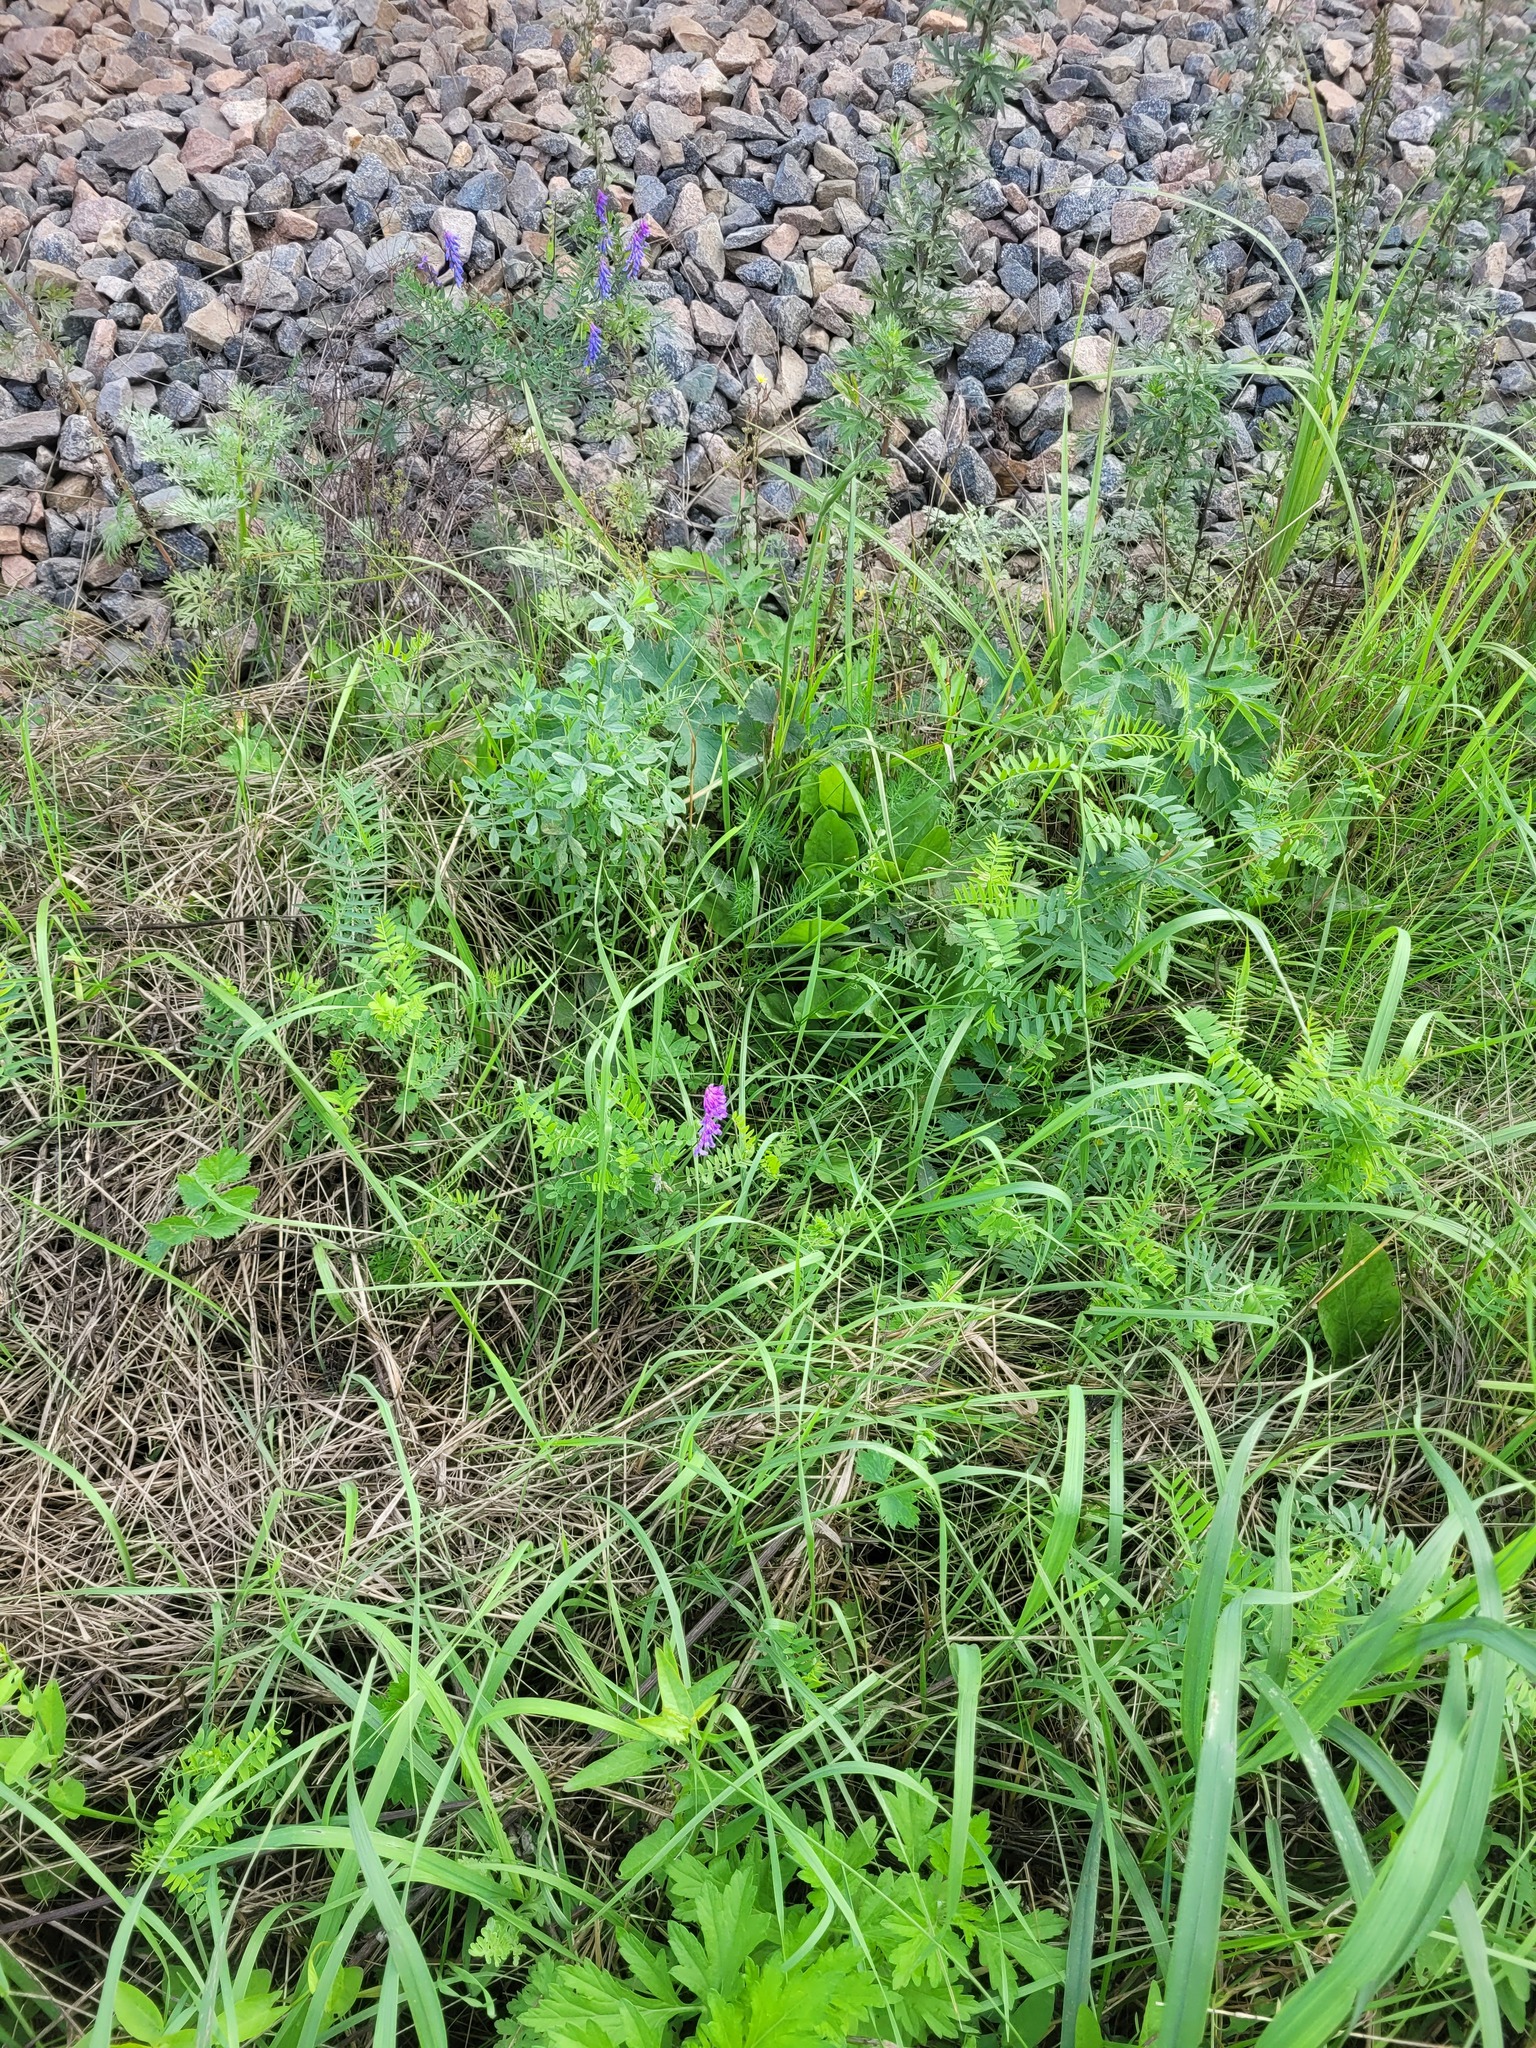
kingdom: Plantae
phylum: Tracheophyta
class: Magnoliopsida
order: Fabales
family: Fabaceae
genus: Vicia
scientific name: Vicia cracca
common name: Bird vetch
